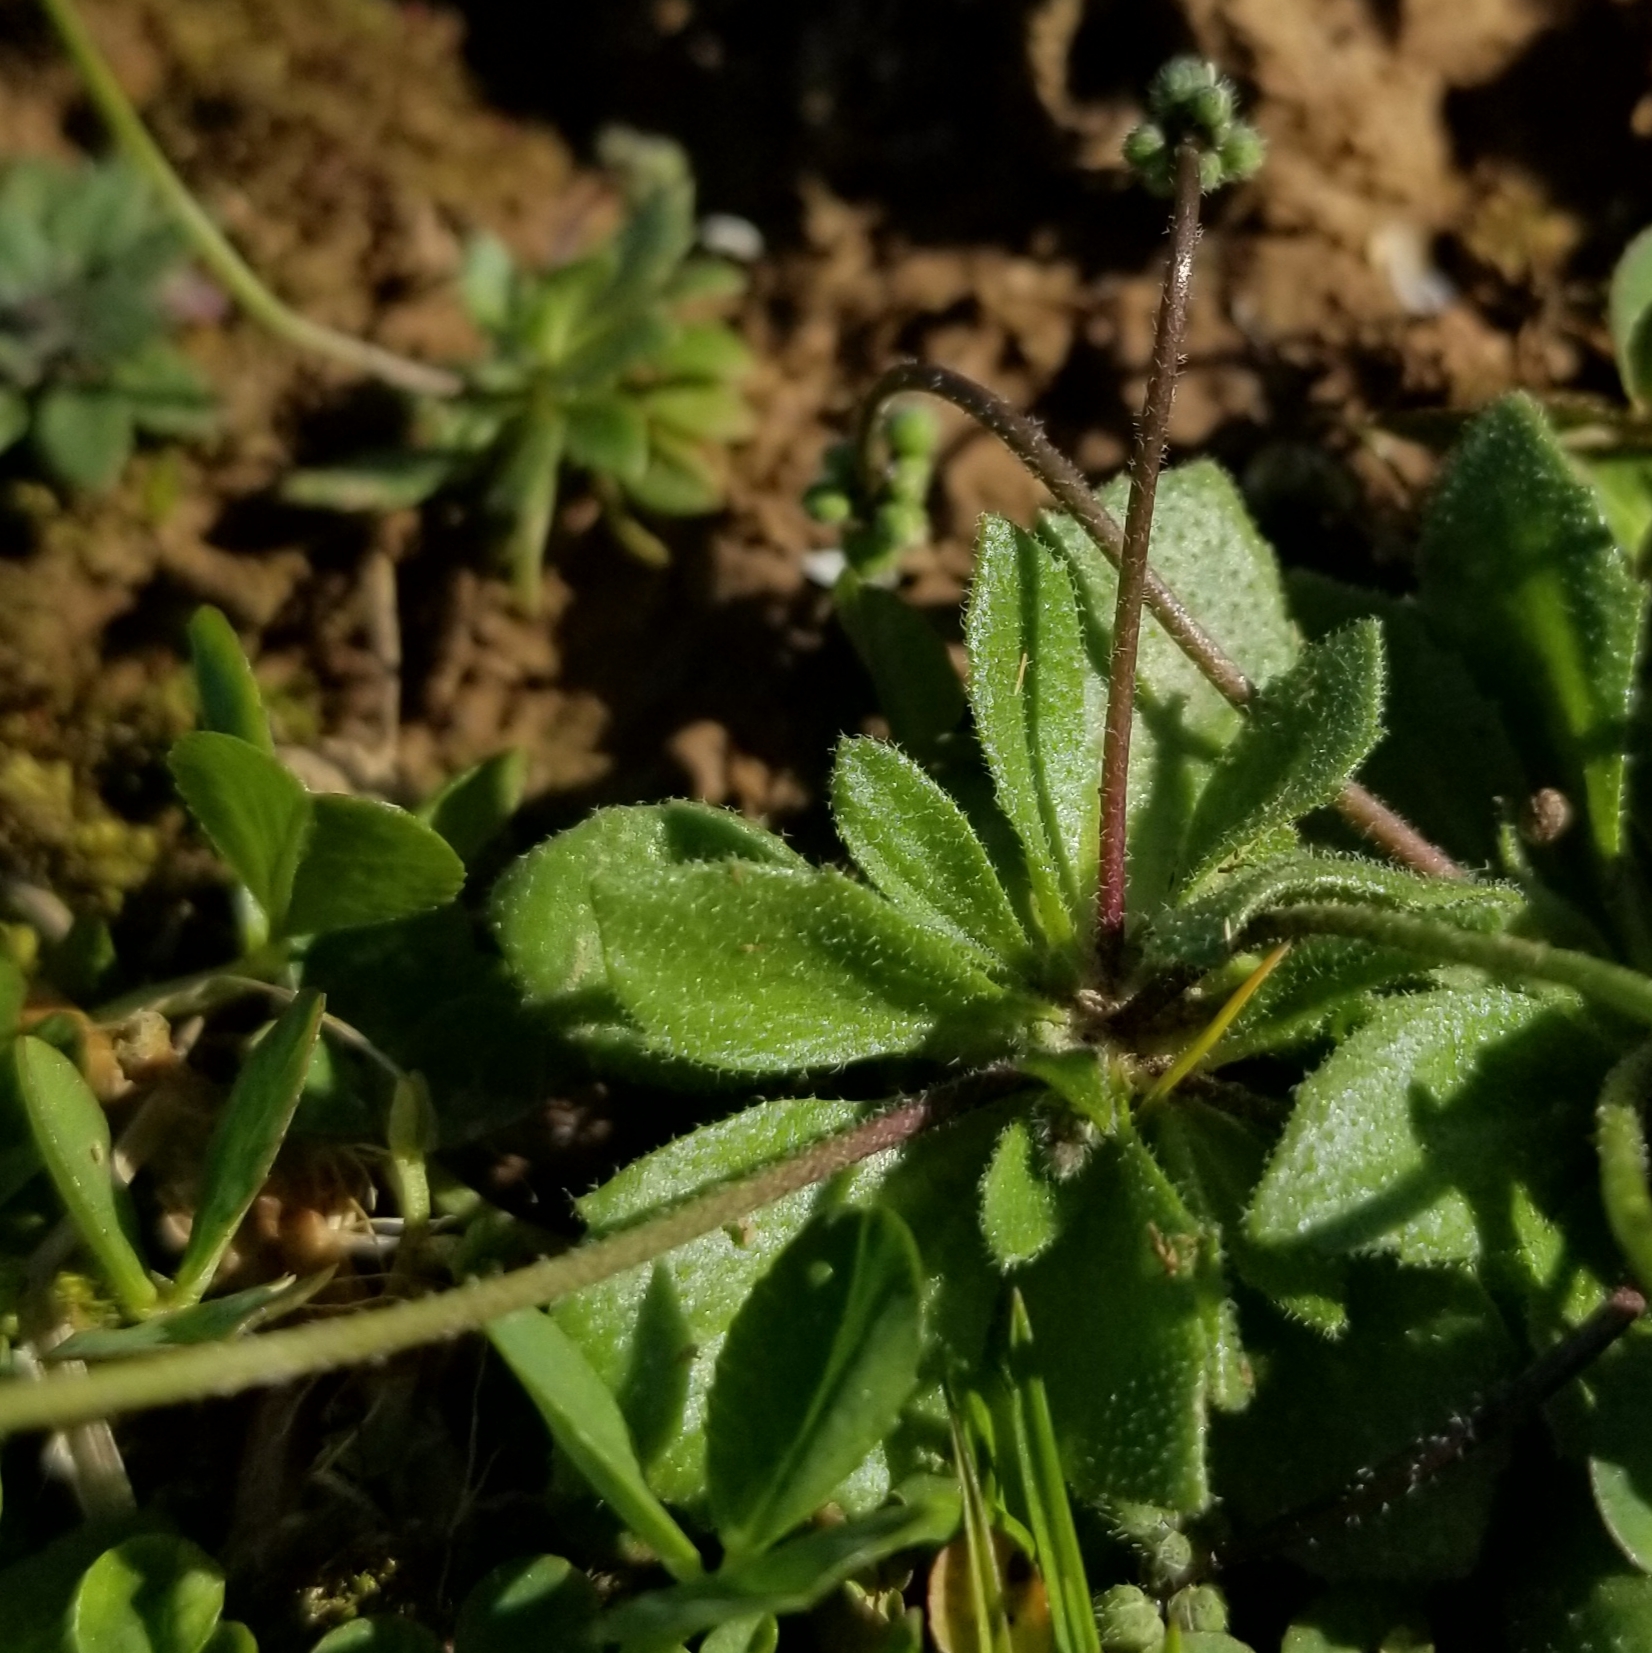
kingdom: Plantae
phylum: Tracheophyta
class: Magnoliopsida
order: Brassicales
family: Brassicaceae
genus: Draba
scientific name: Draba verna
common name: Spring draba
